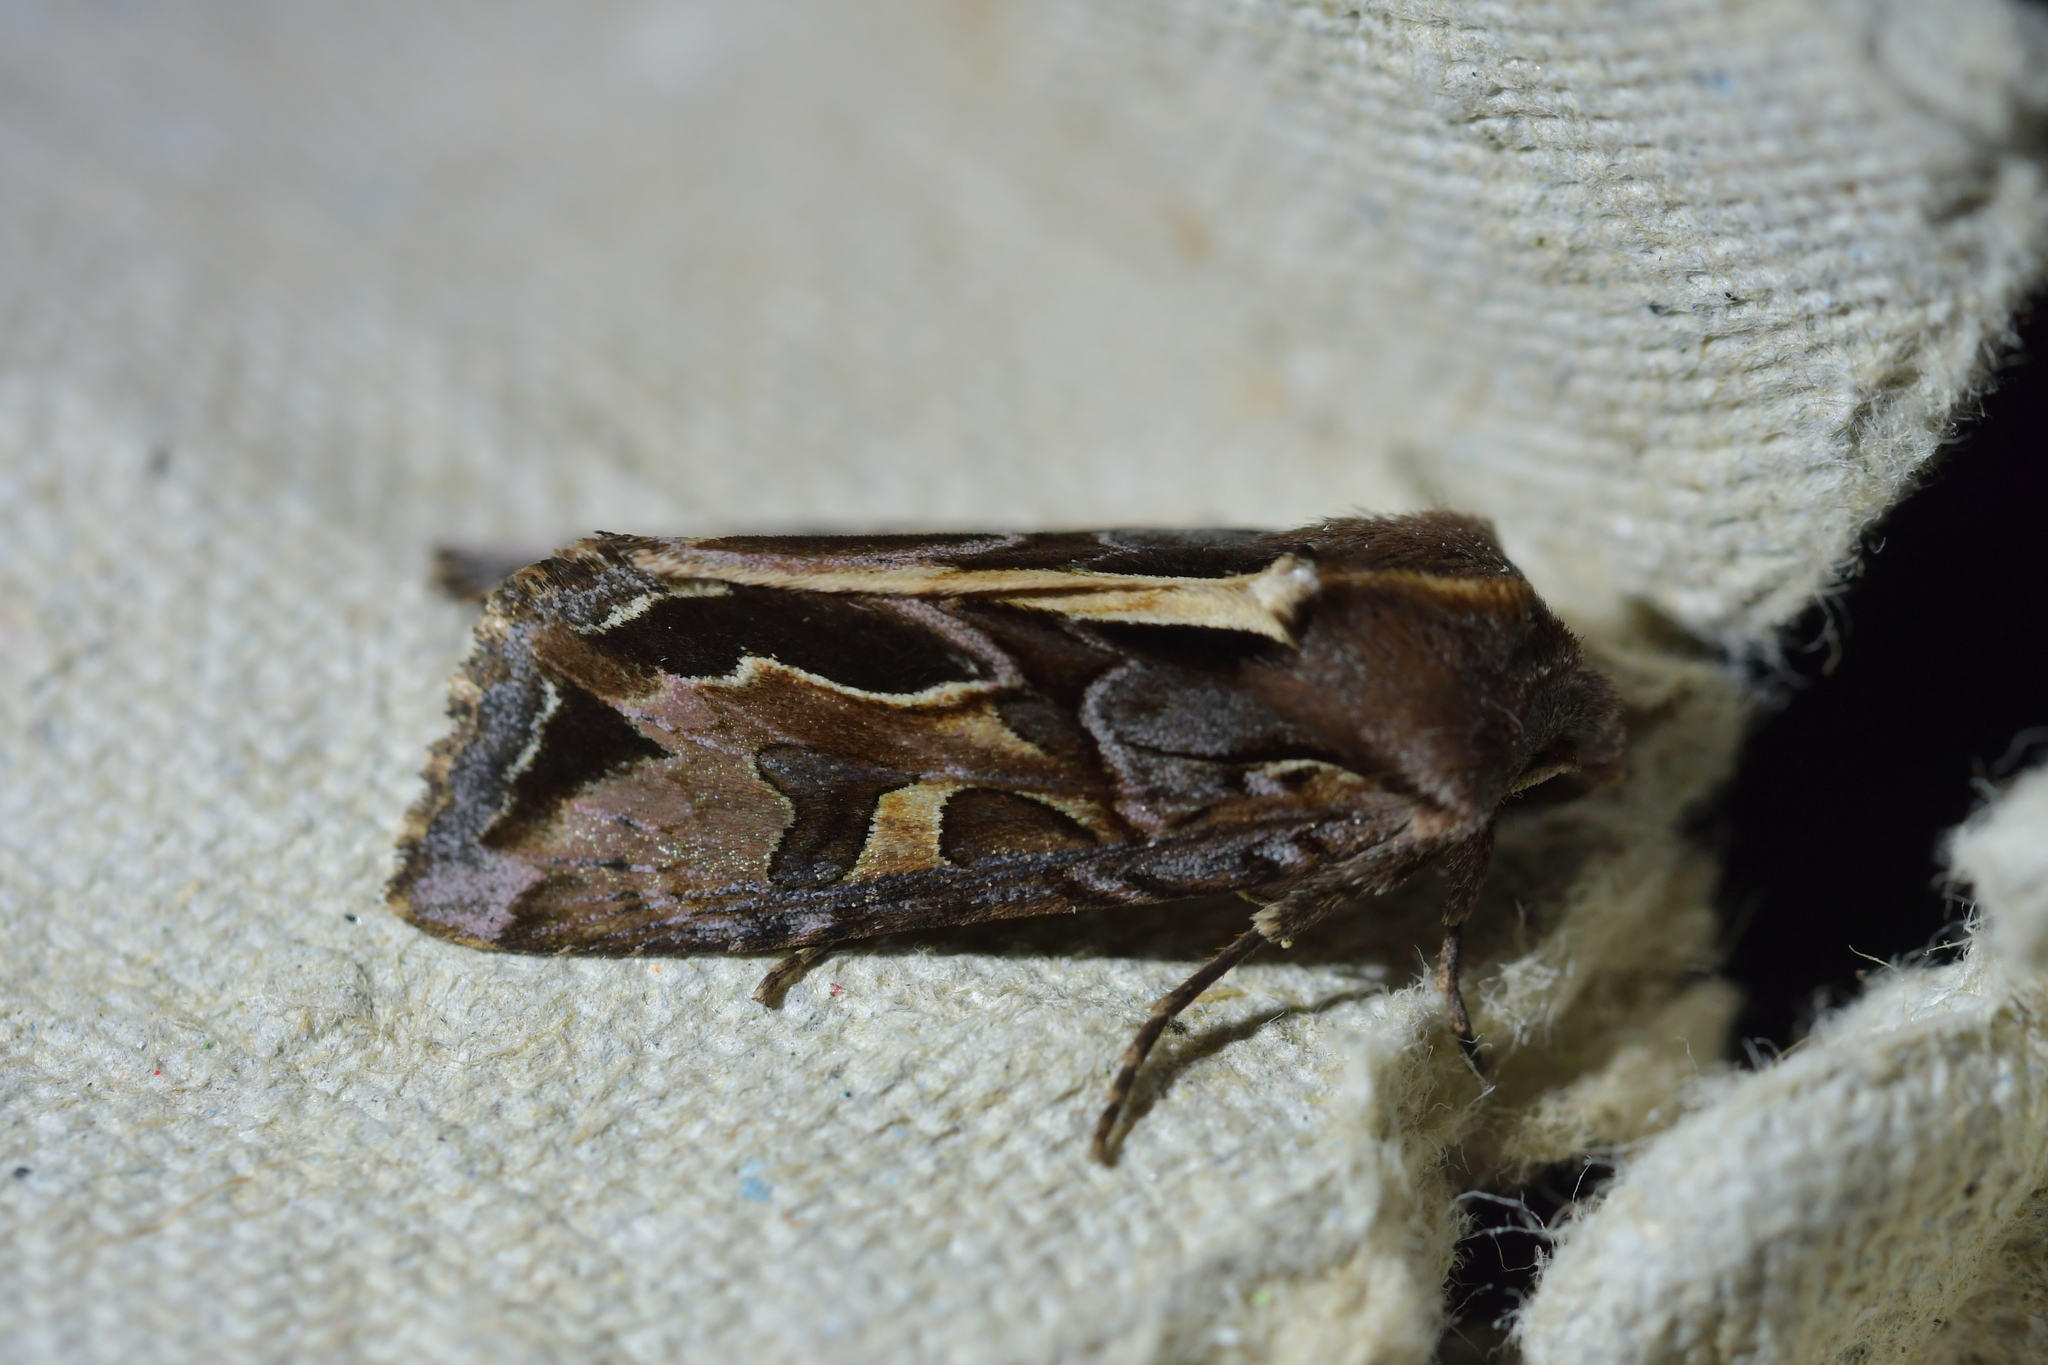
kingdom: Animalia
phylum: Arthropoda
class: Insecta
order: Lepidoptera
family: Noctuidae
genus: Ichneutica
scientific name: Ichneutica
